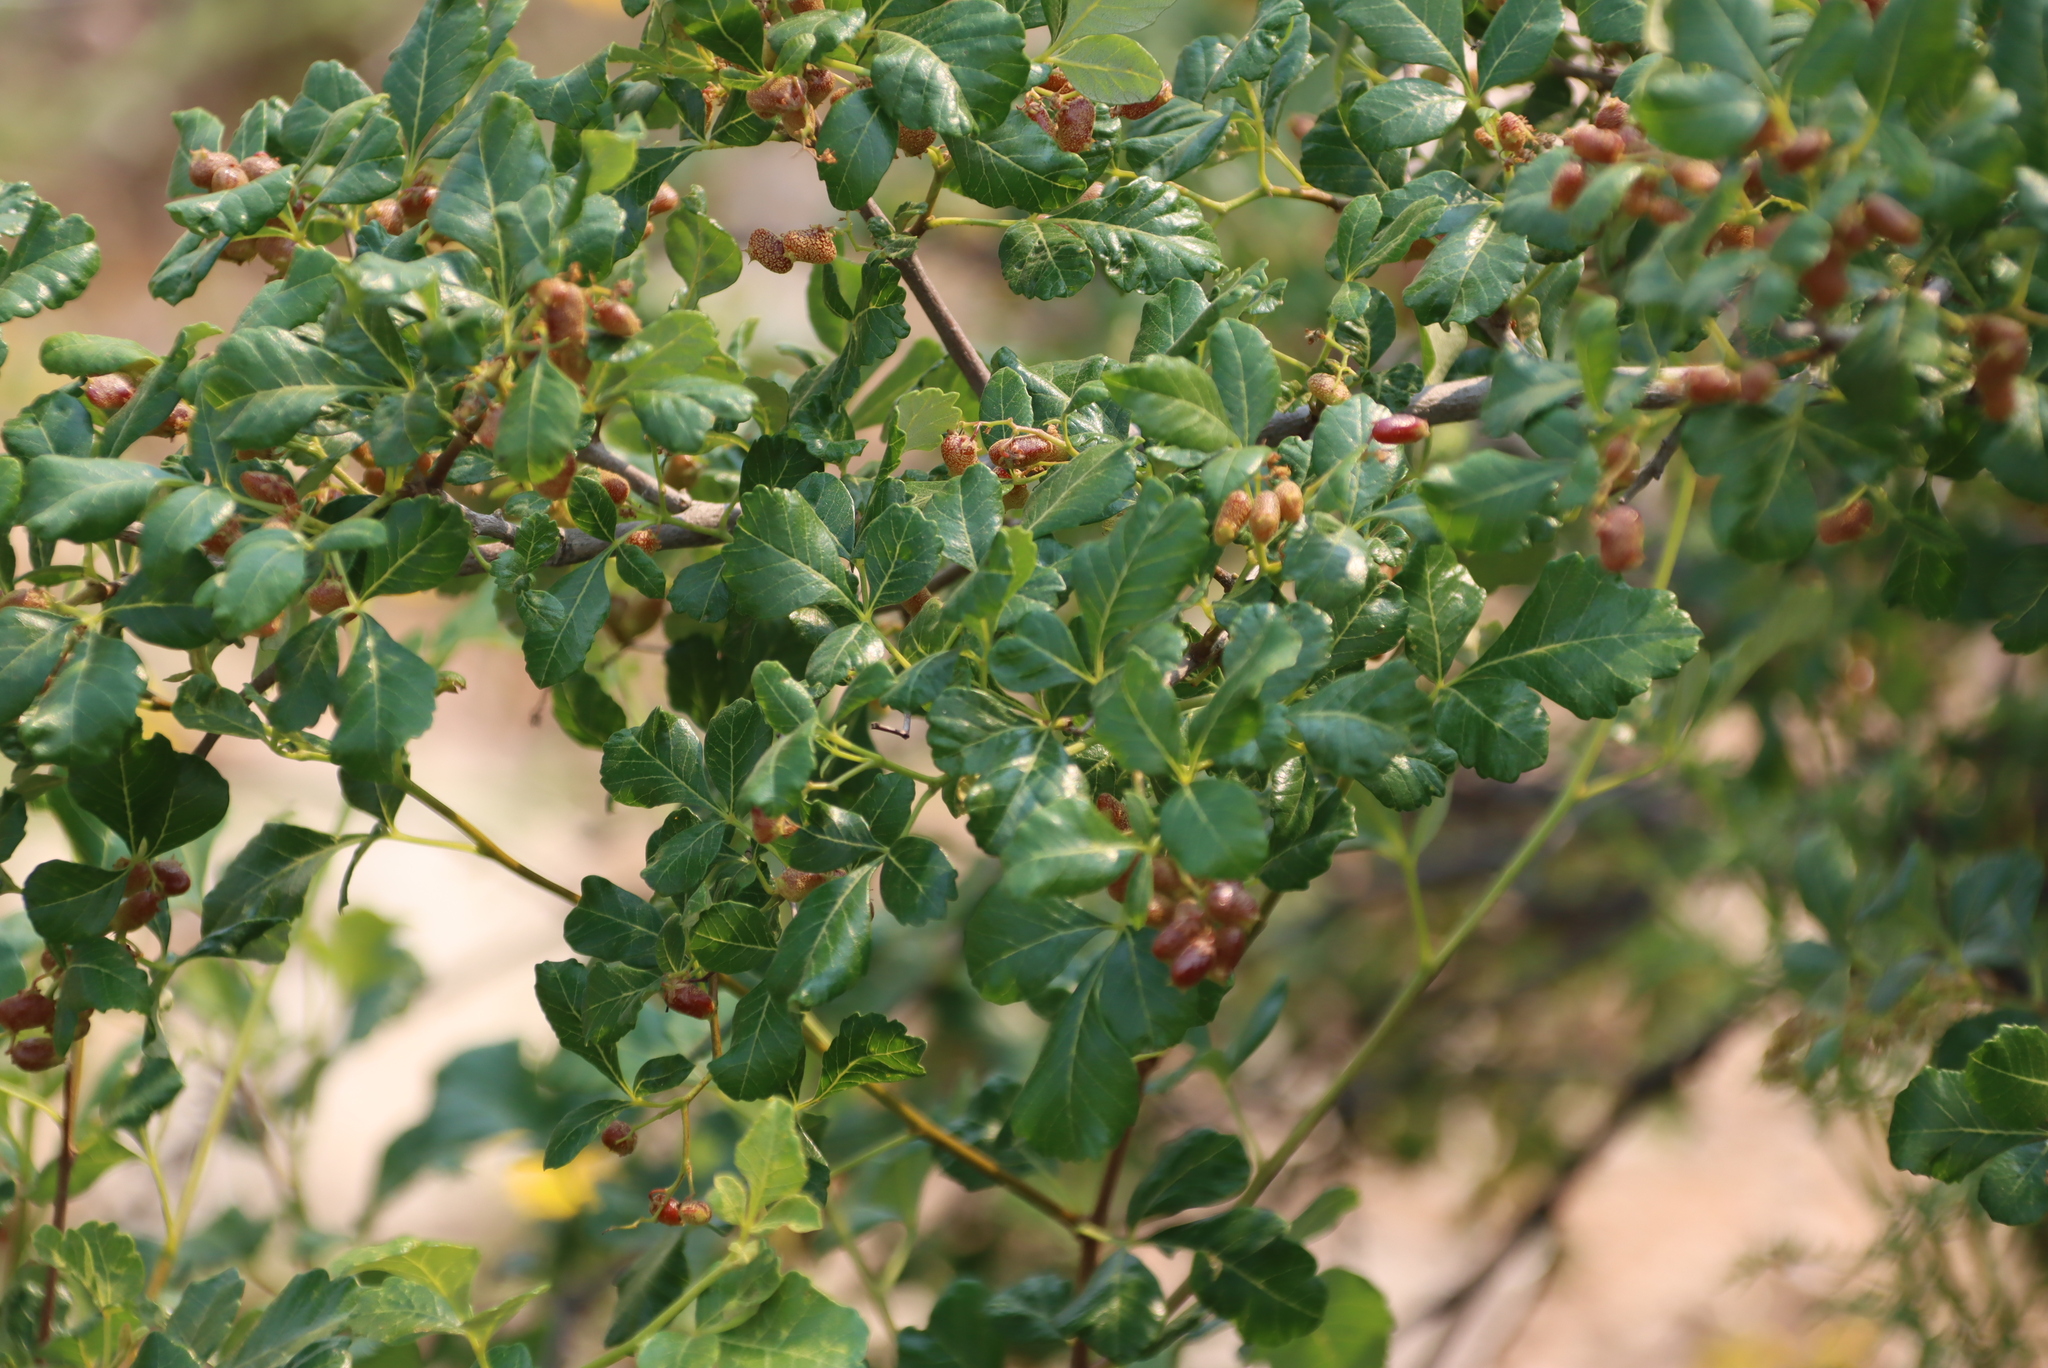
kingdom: Plantae
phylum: Tracheophyta
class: Magnoliopsida
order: Sapindales
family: Anacardiaceae
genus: Searsia
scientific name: Searsia populifolia
